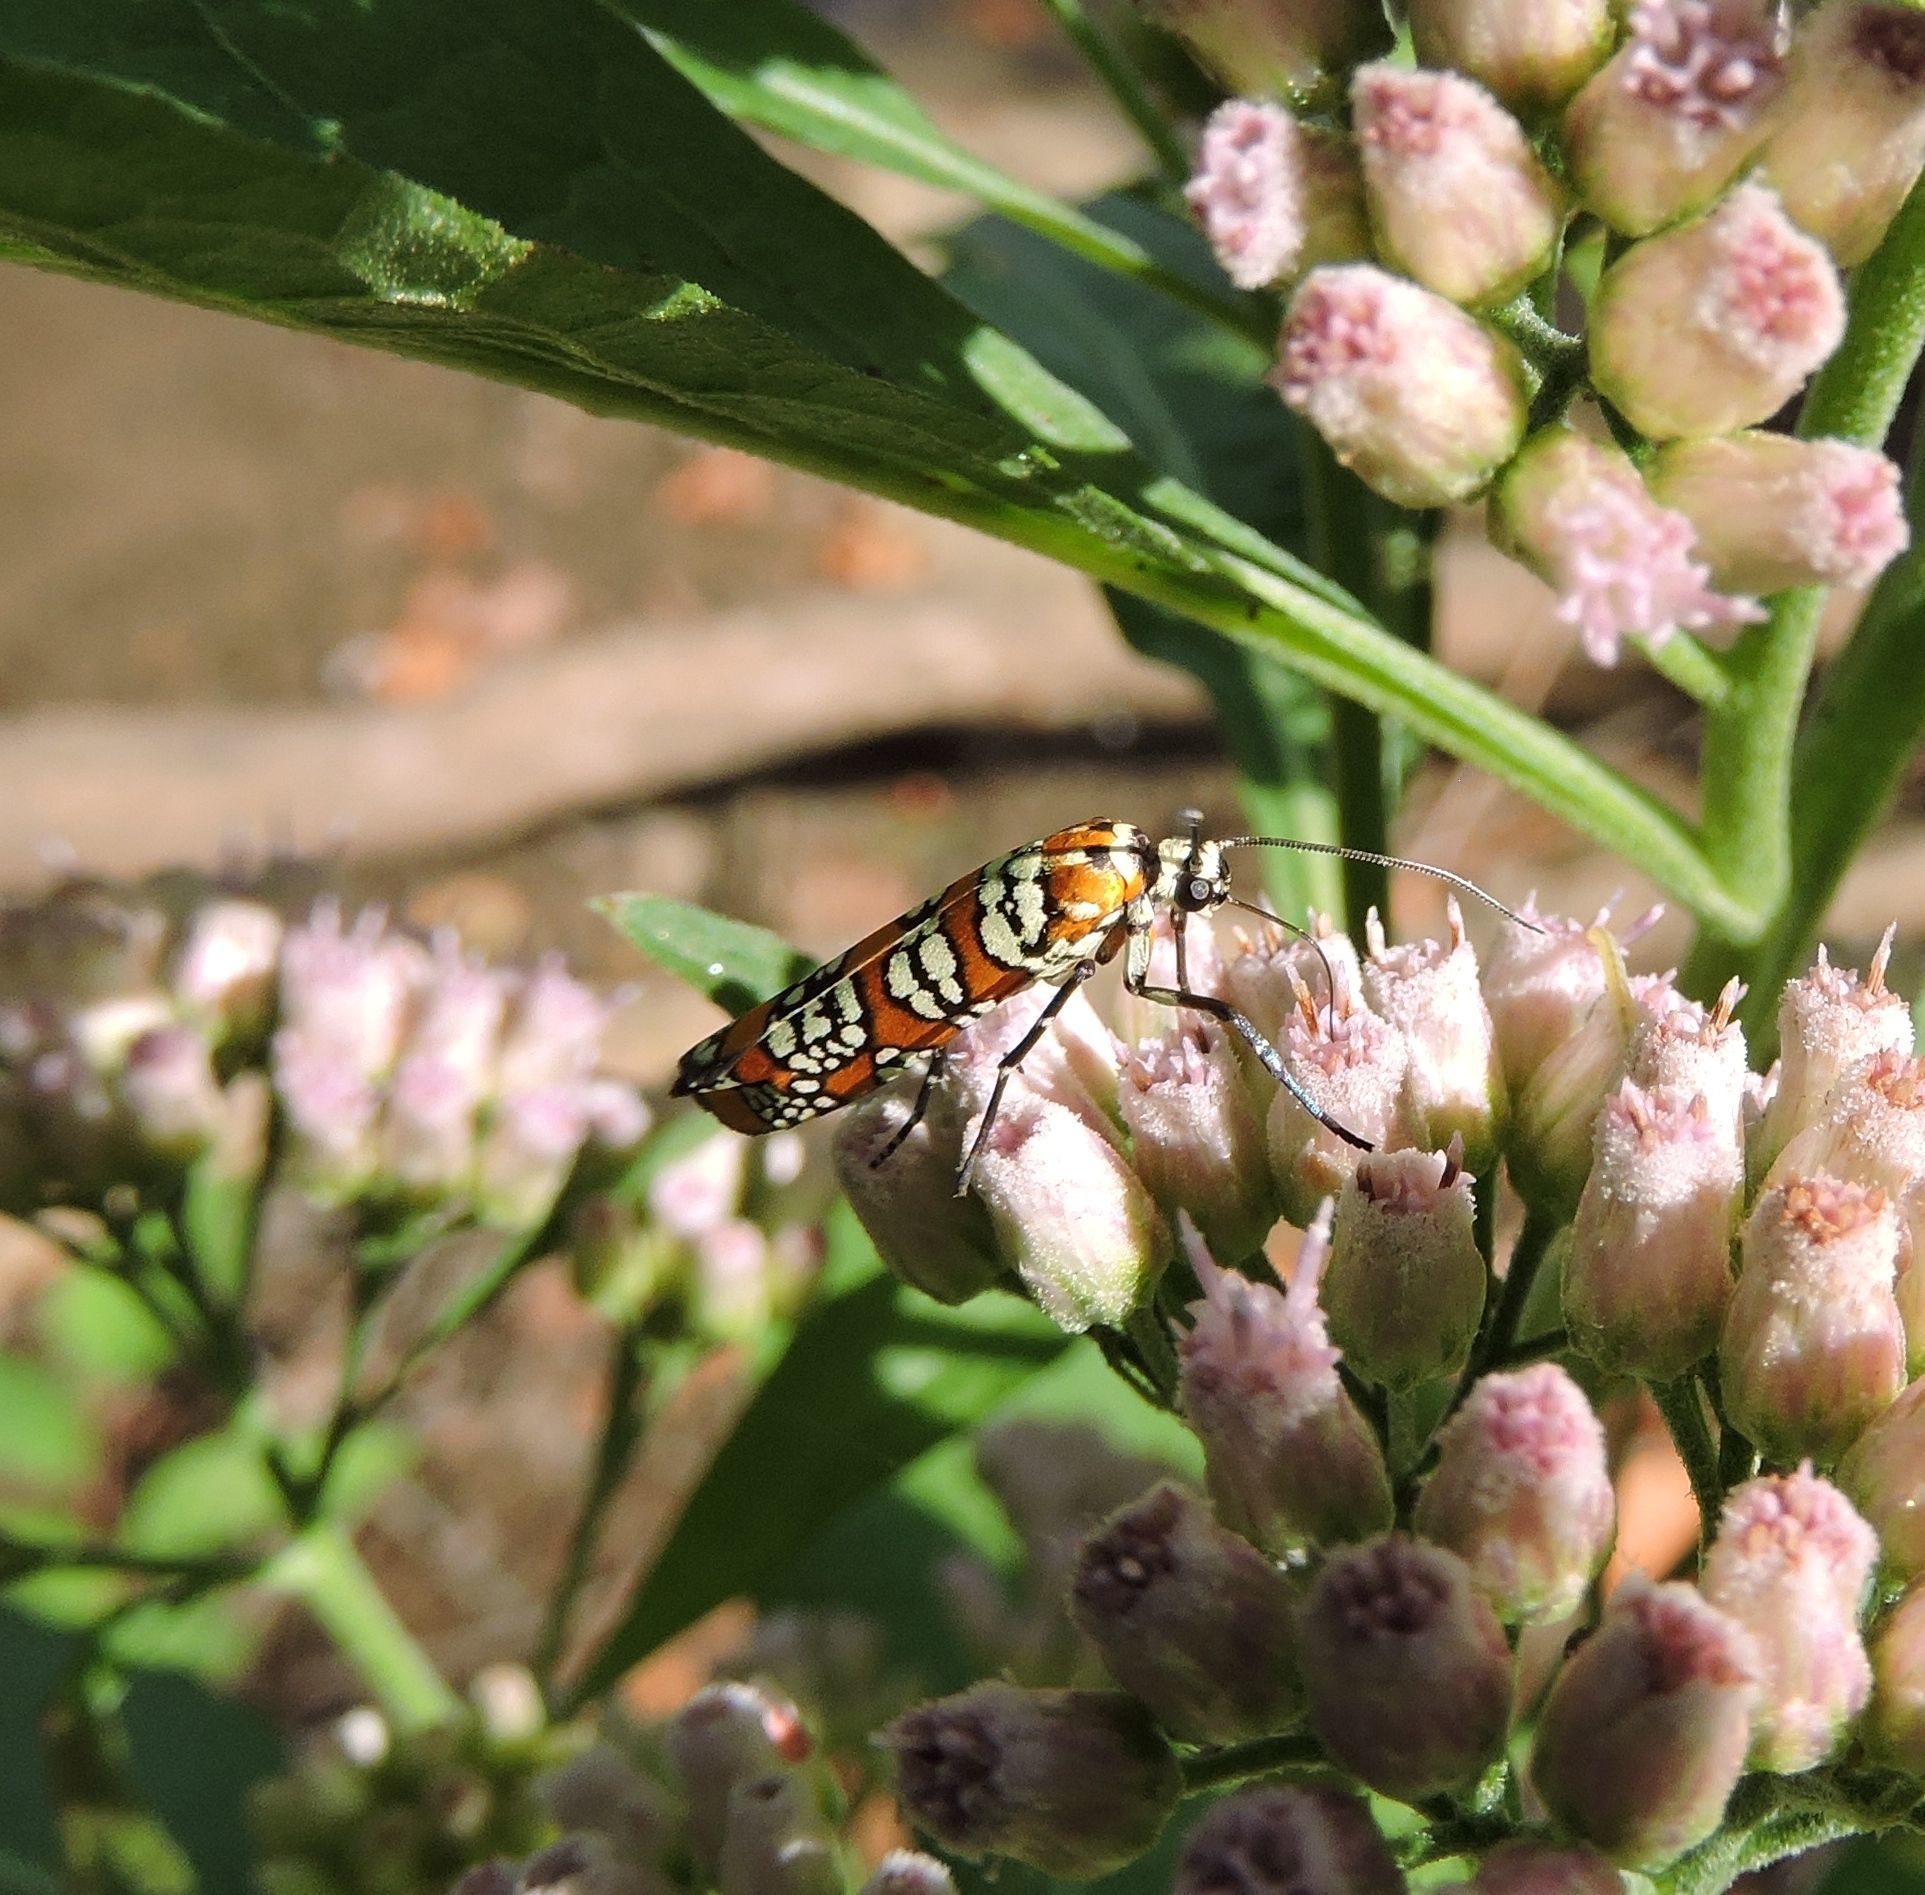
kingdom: Animalia
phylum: Arthropoda
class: Insecta
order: Lepidoptera
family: Attevidae
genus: Atteva
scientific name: Atteva punctella
